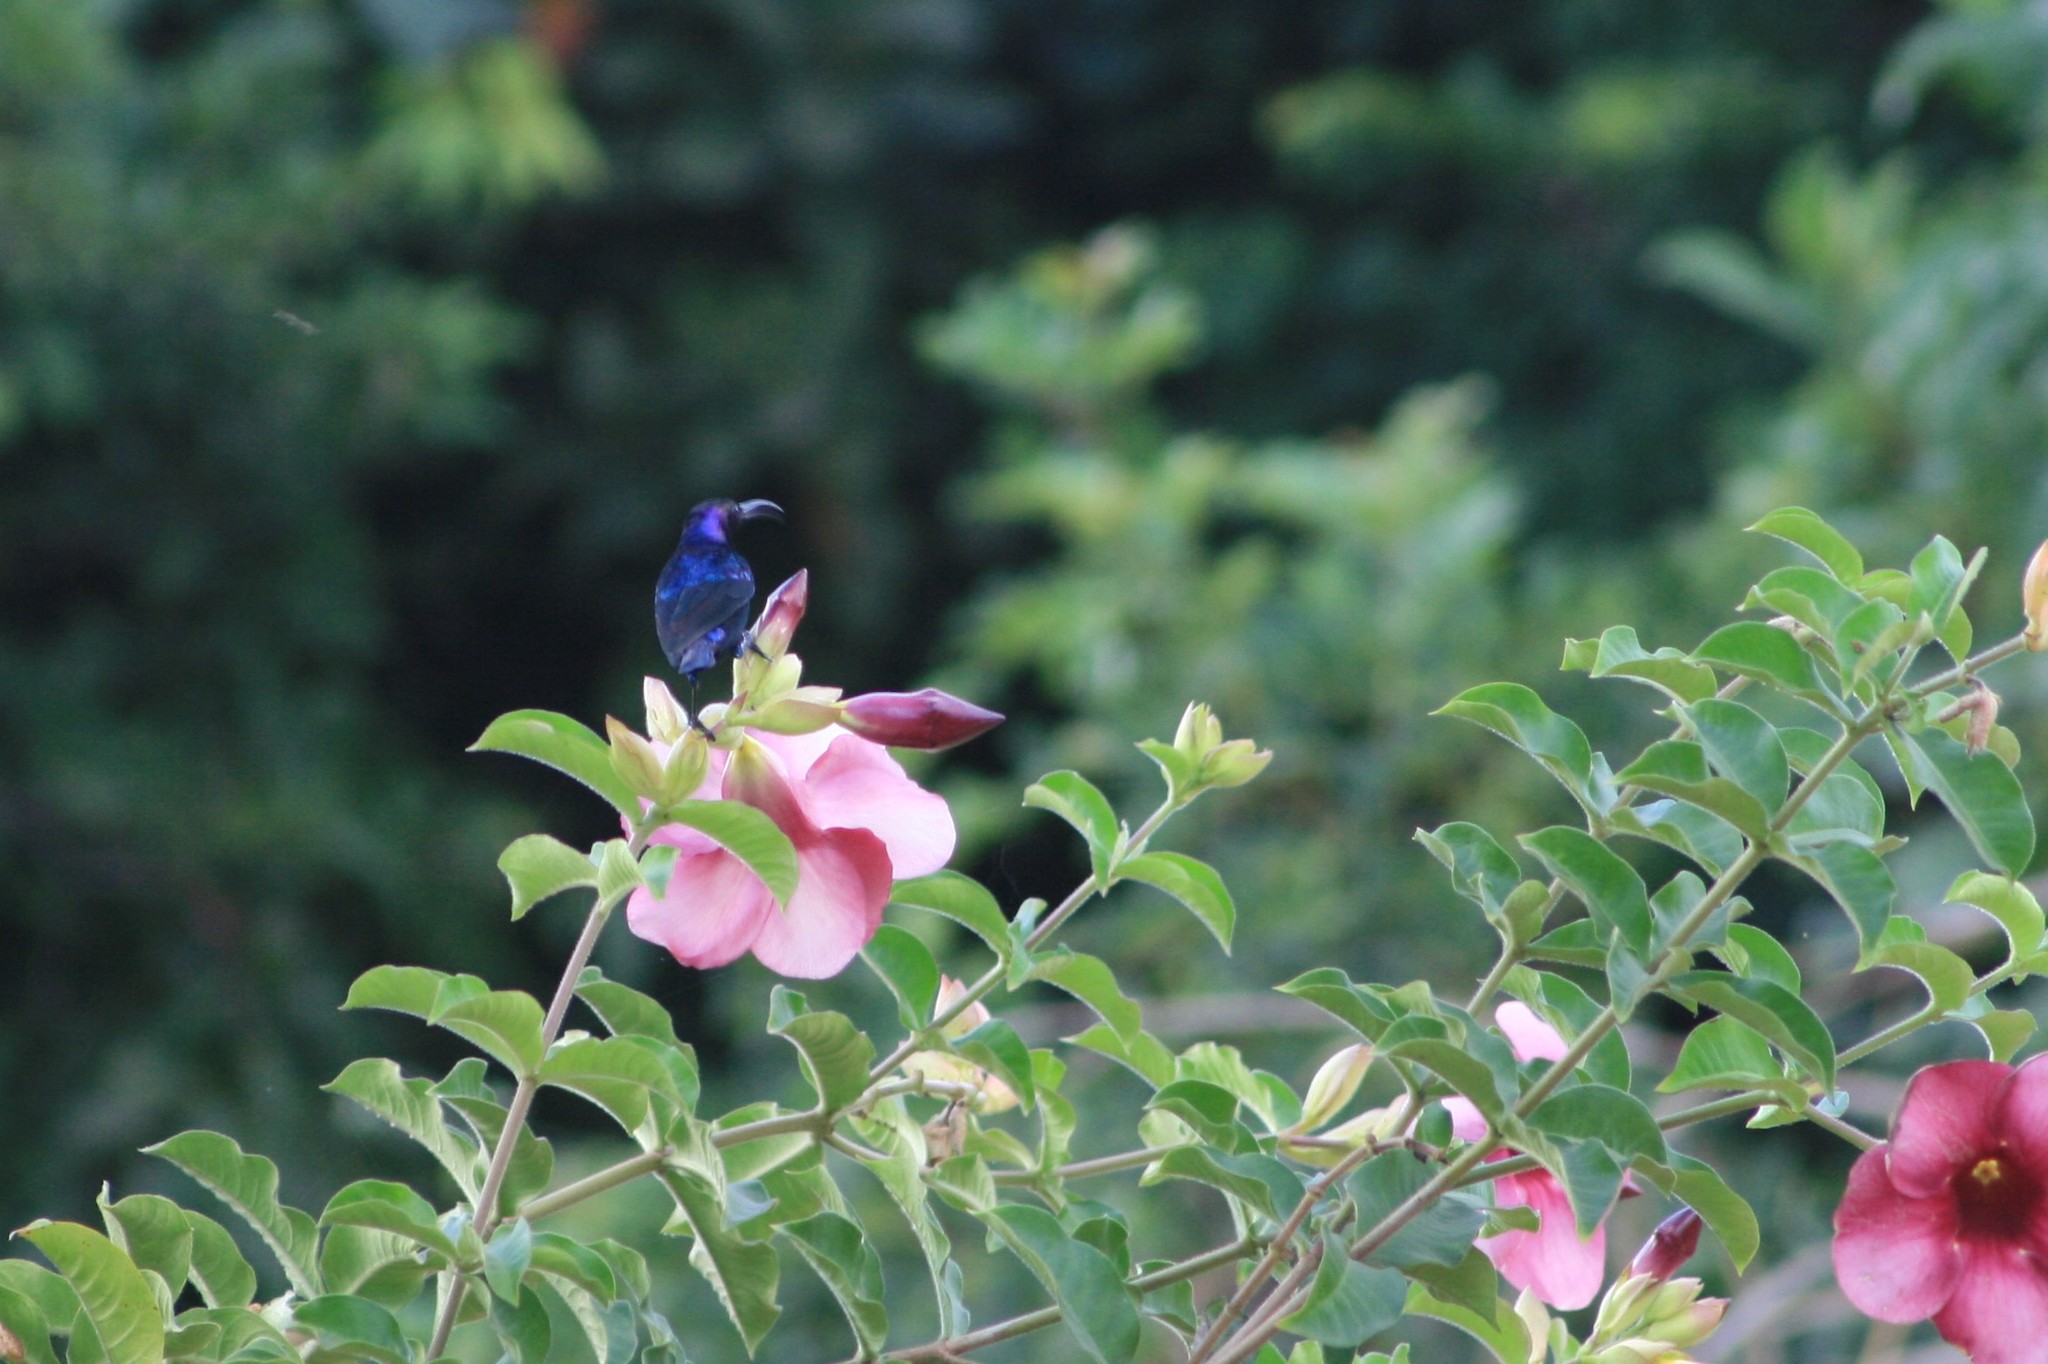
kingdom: Animalia
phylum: Chordata
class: Aves
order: Passeriformes
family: Nectariniidae
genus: Cinnyris
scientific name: Cinnyris coccinigastrus
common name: Splendid sunbird
